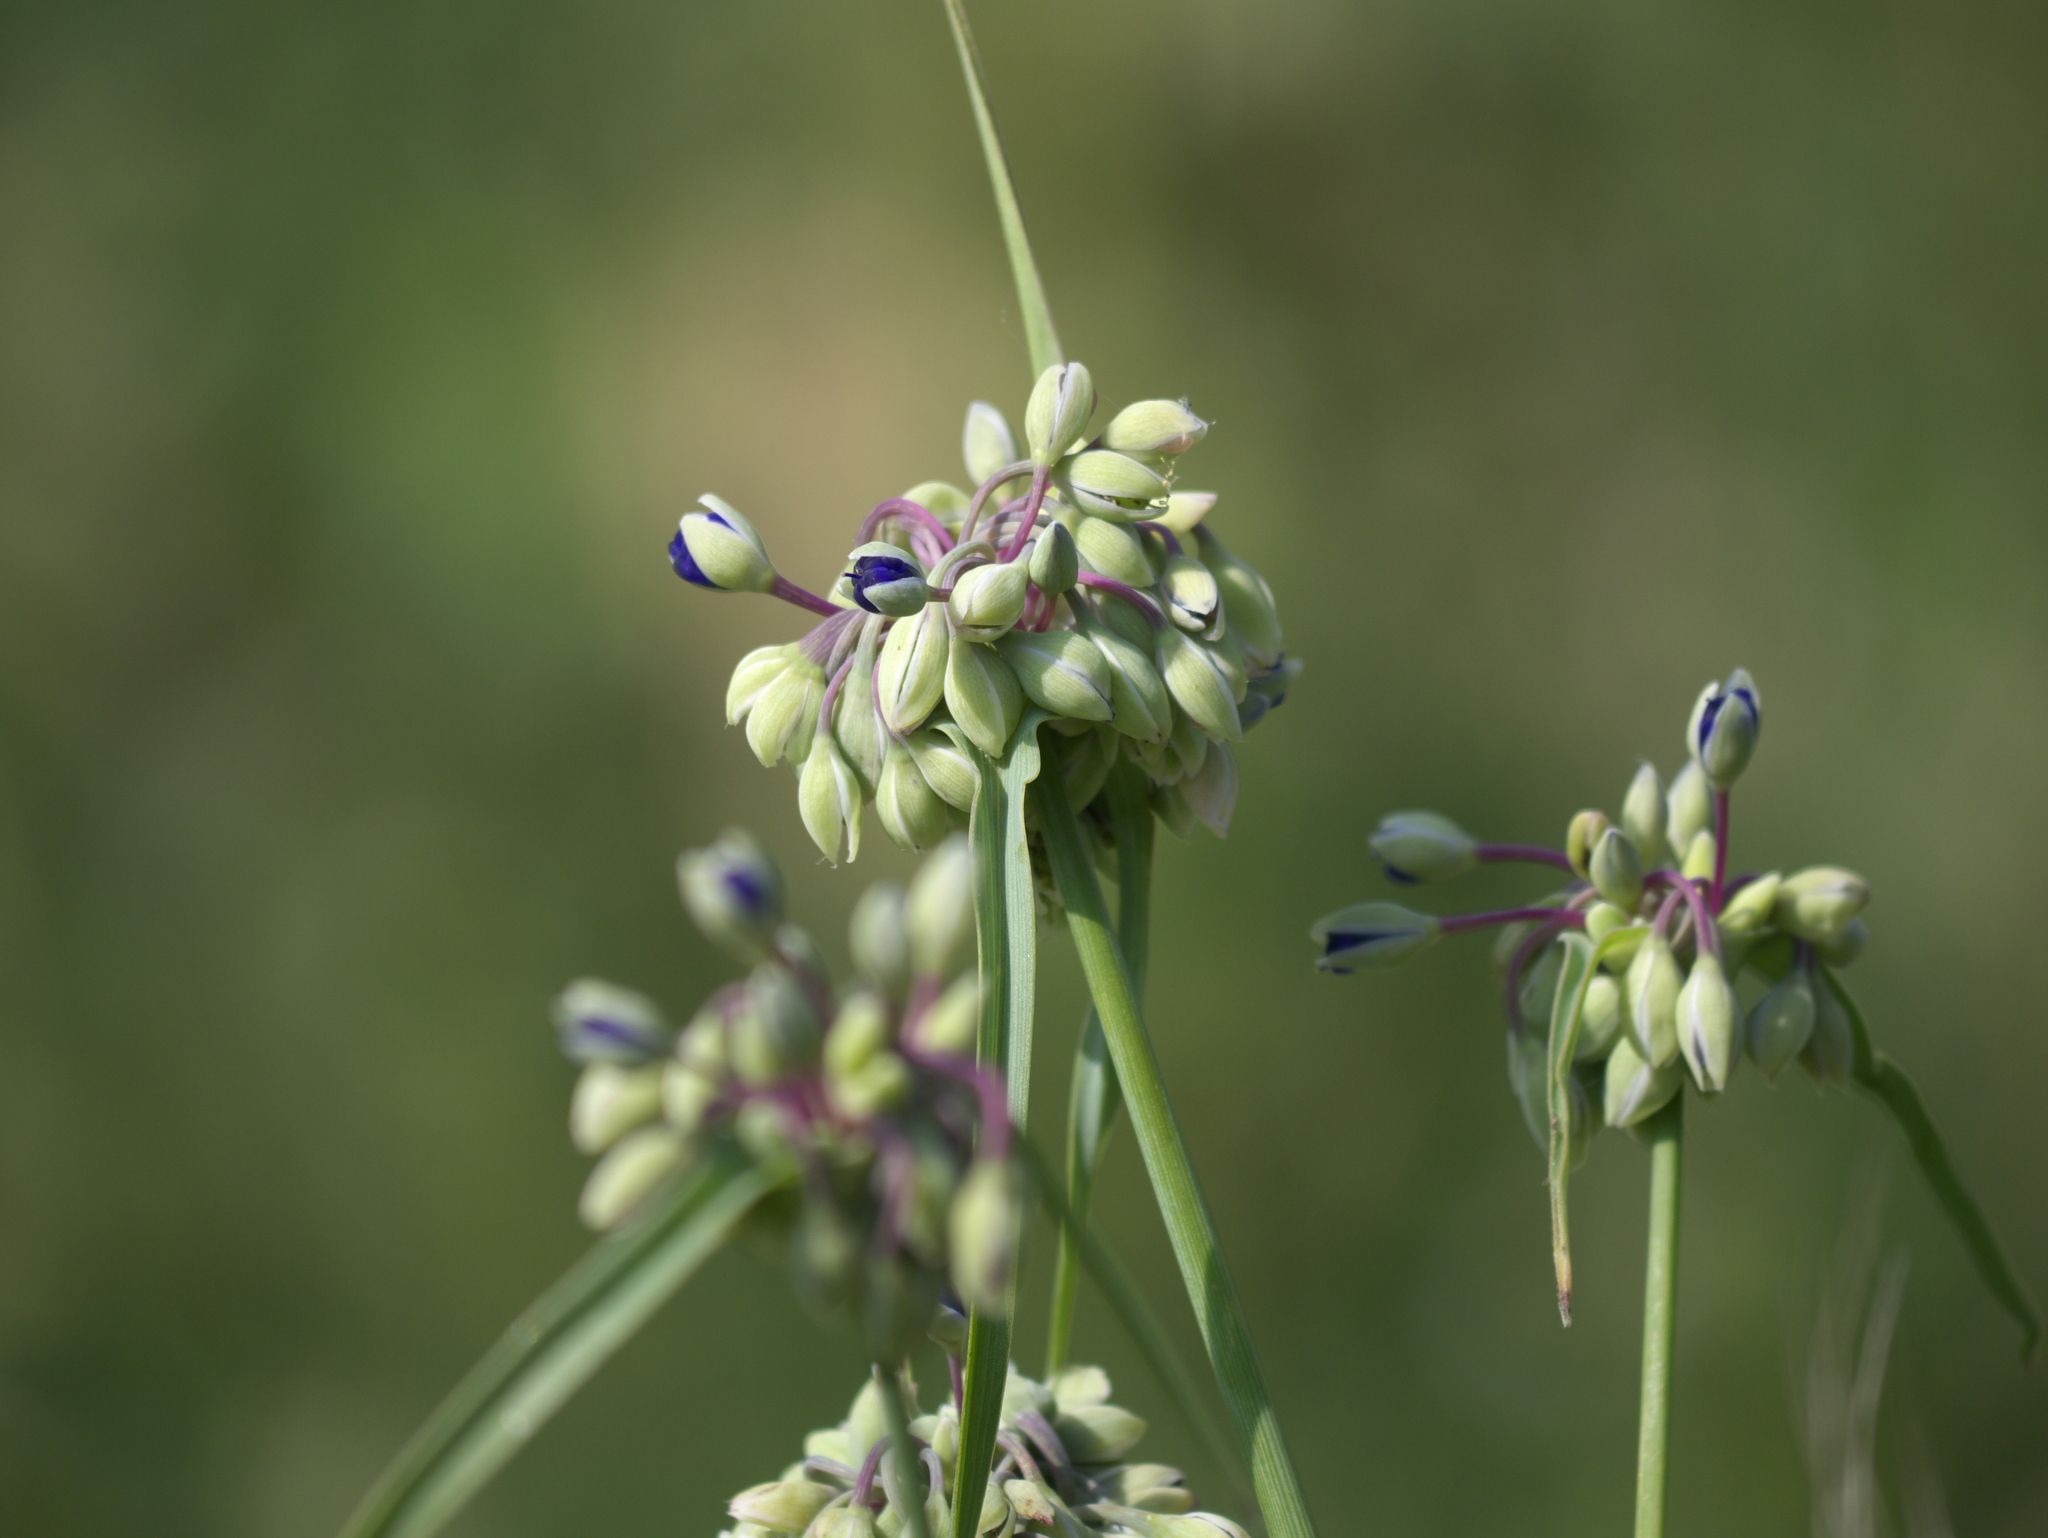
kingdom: Plantae
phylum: Tracheophyta
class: Liliopsida
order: Commelinales
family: Commelinaceae
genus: Tradescantia
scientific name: Tradescantia ohiensis
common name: Ohio spiderwort
